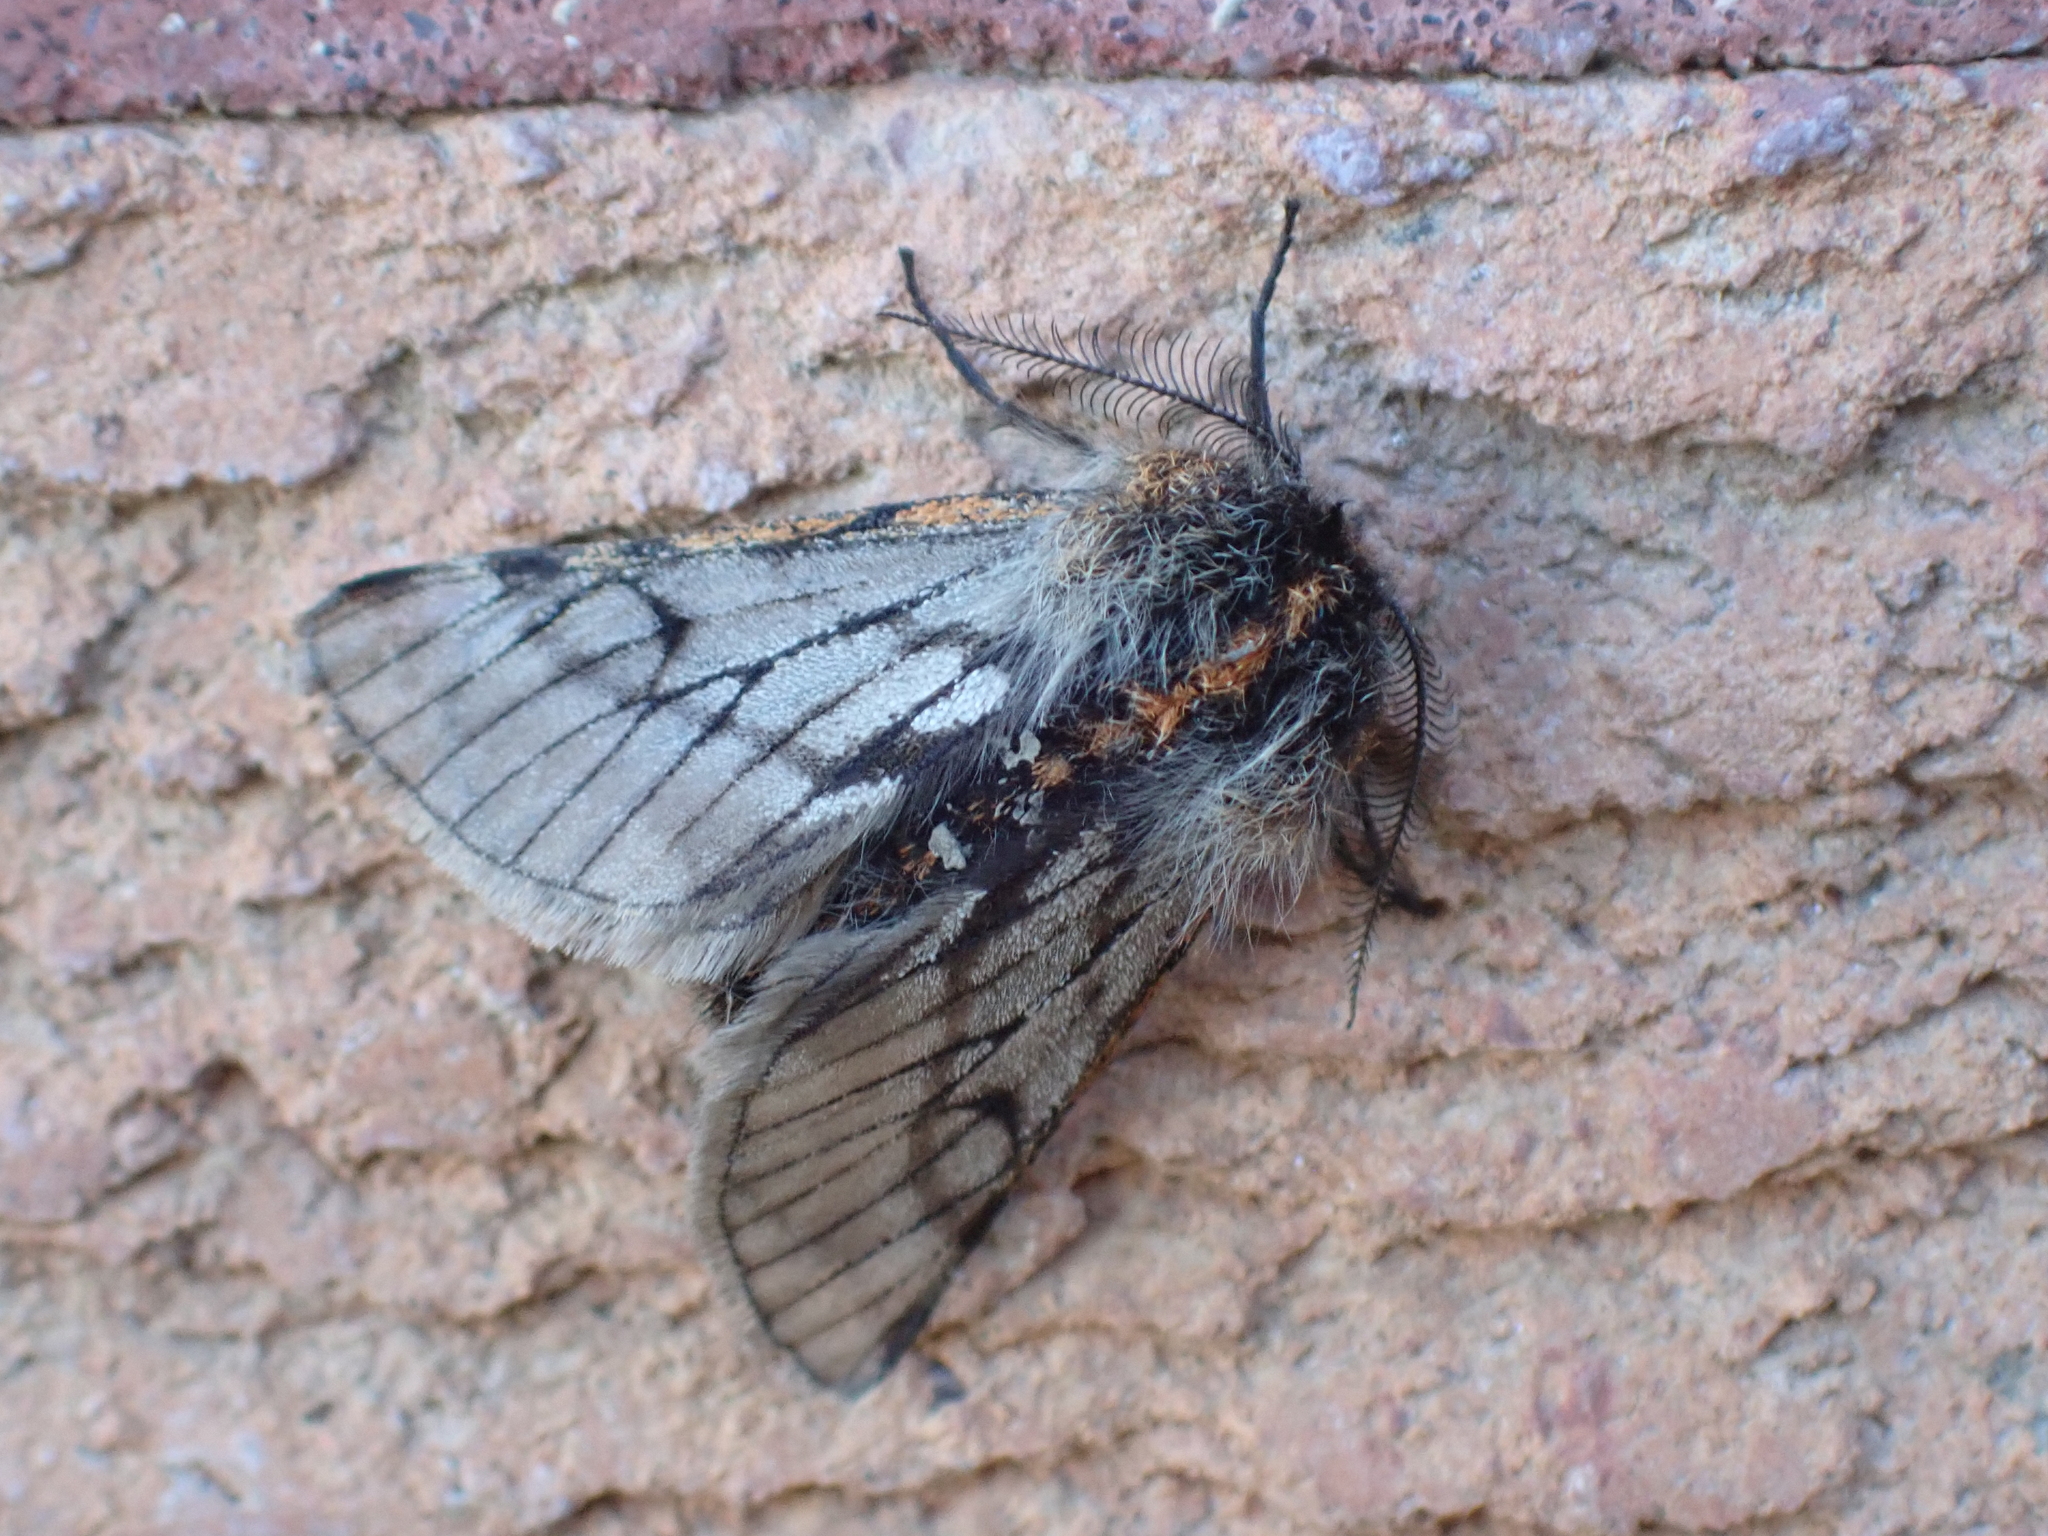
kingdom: Animalia
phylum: Arthropoda
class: Insecta
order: Lepidoptera
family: Geometridae
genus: Lycia
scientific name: Lycia rachelae
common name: Twilight moth
